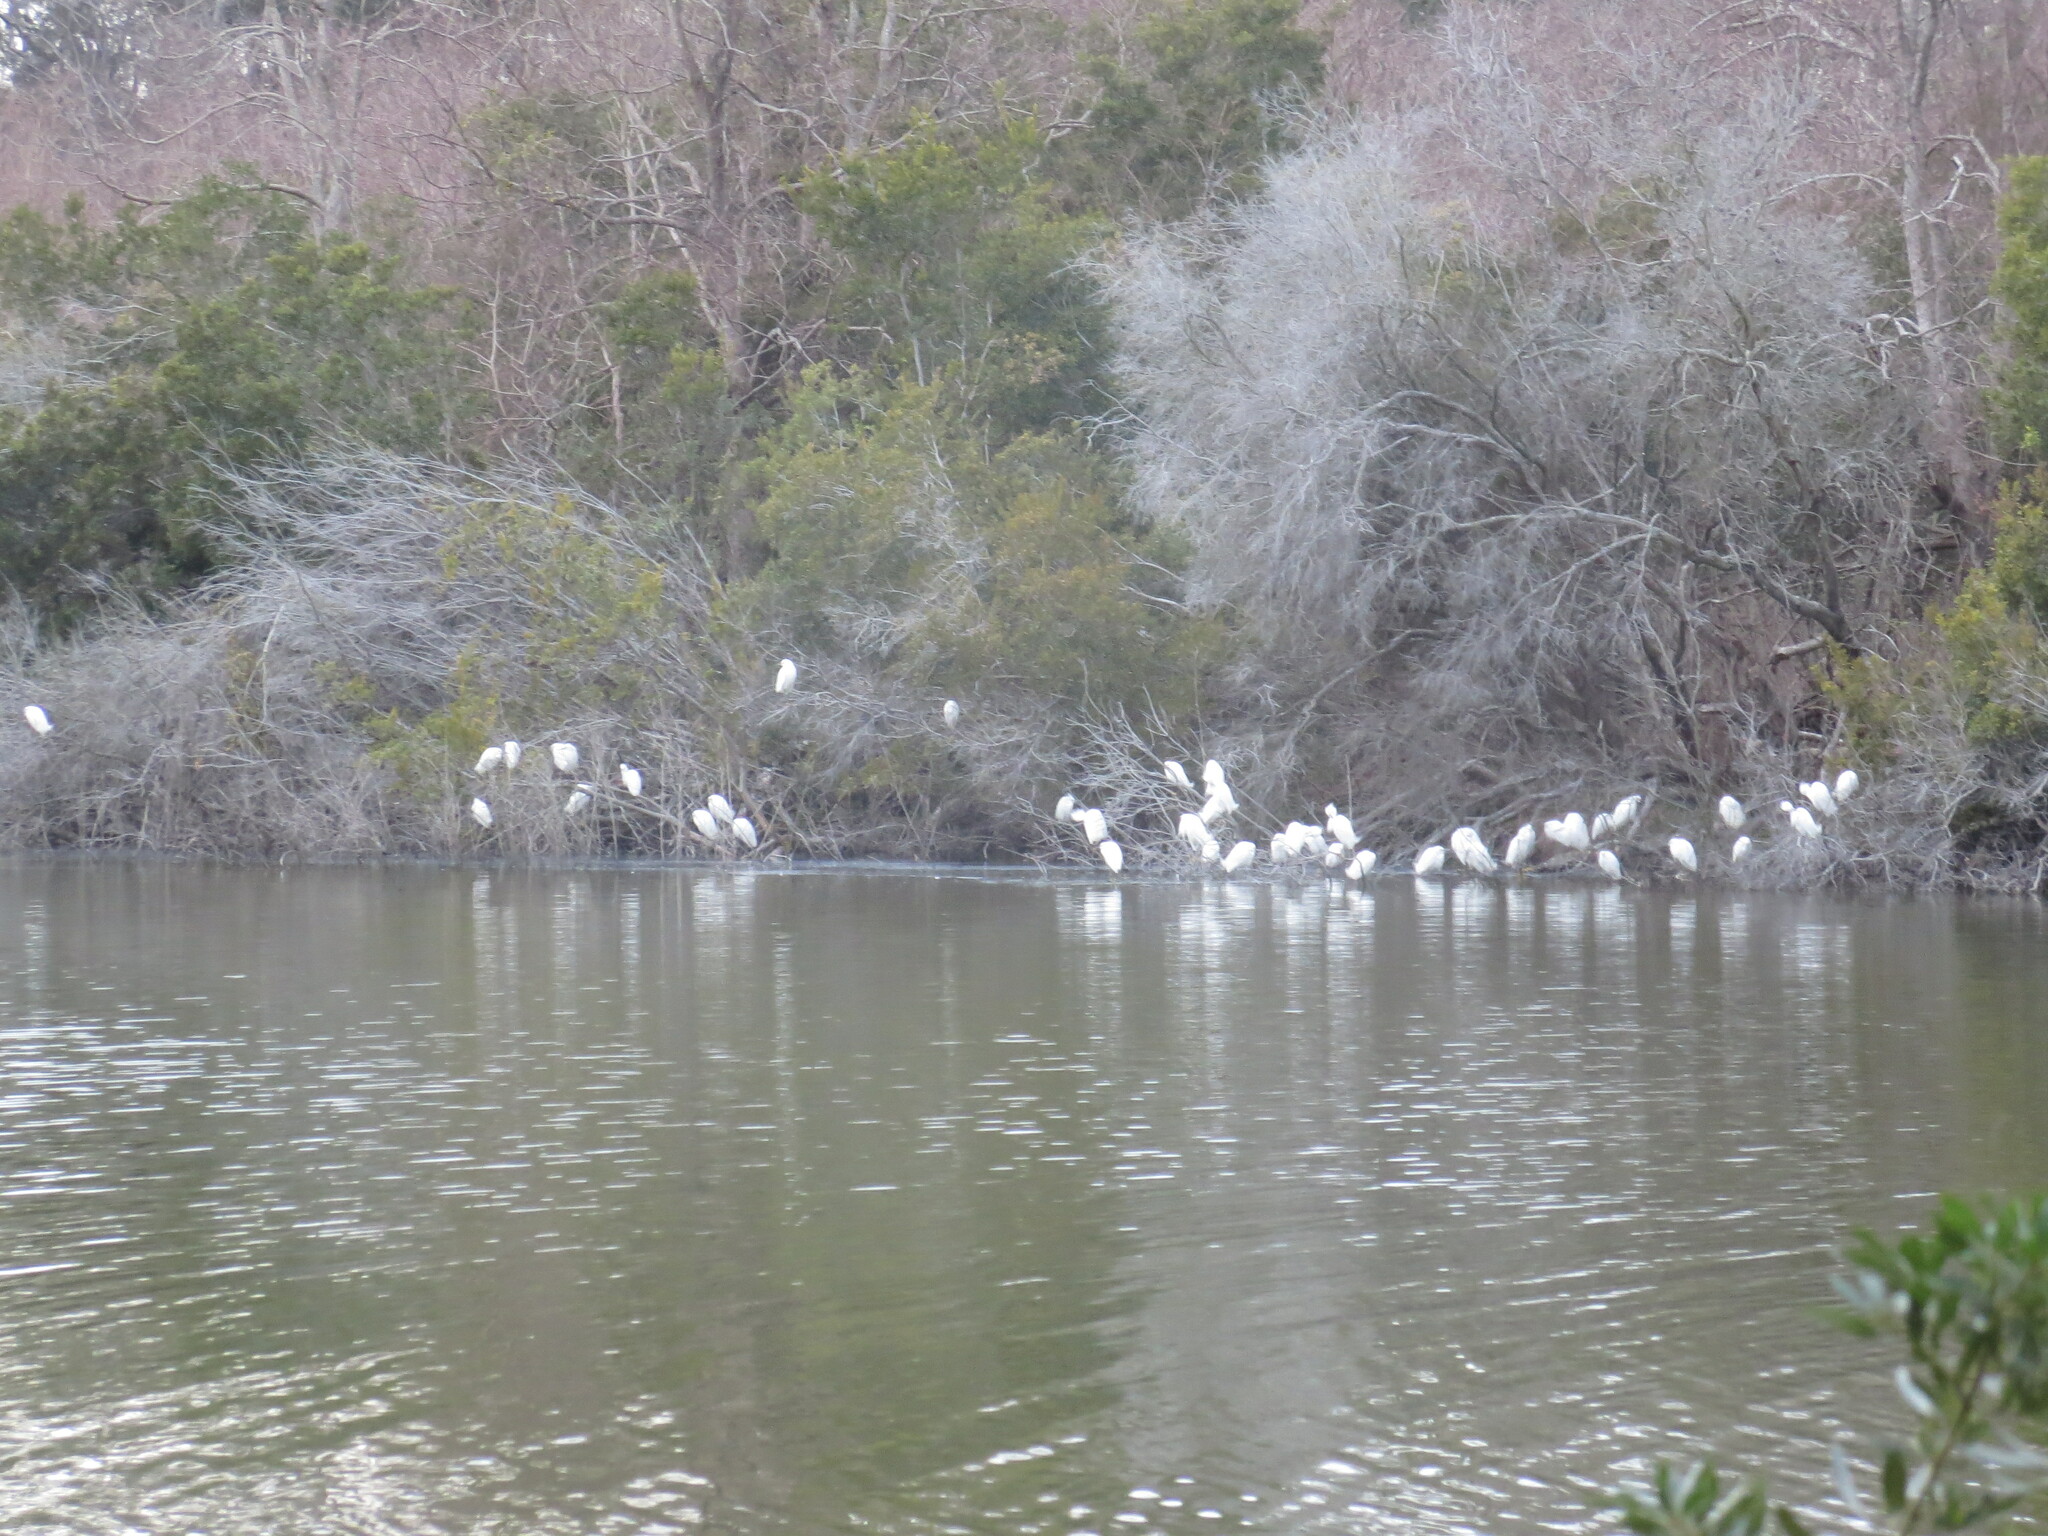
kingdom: Animalia
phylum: Chordata
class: Aves
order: Pelecaniformes
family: Ardeidae
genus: Egretta
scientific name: Egretta thula
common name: Snowy egret
